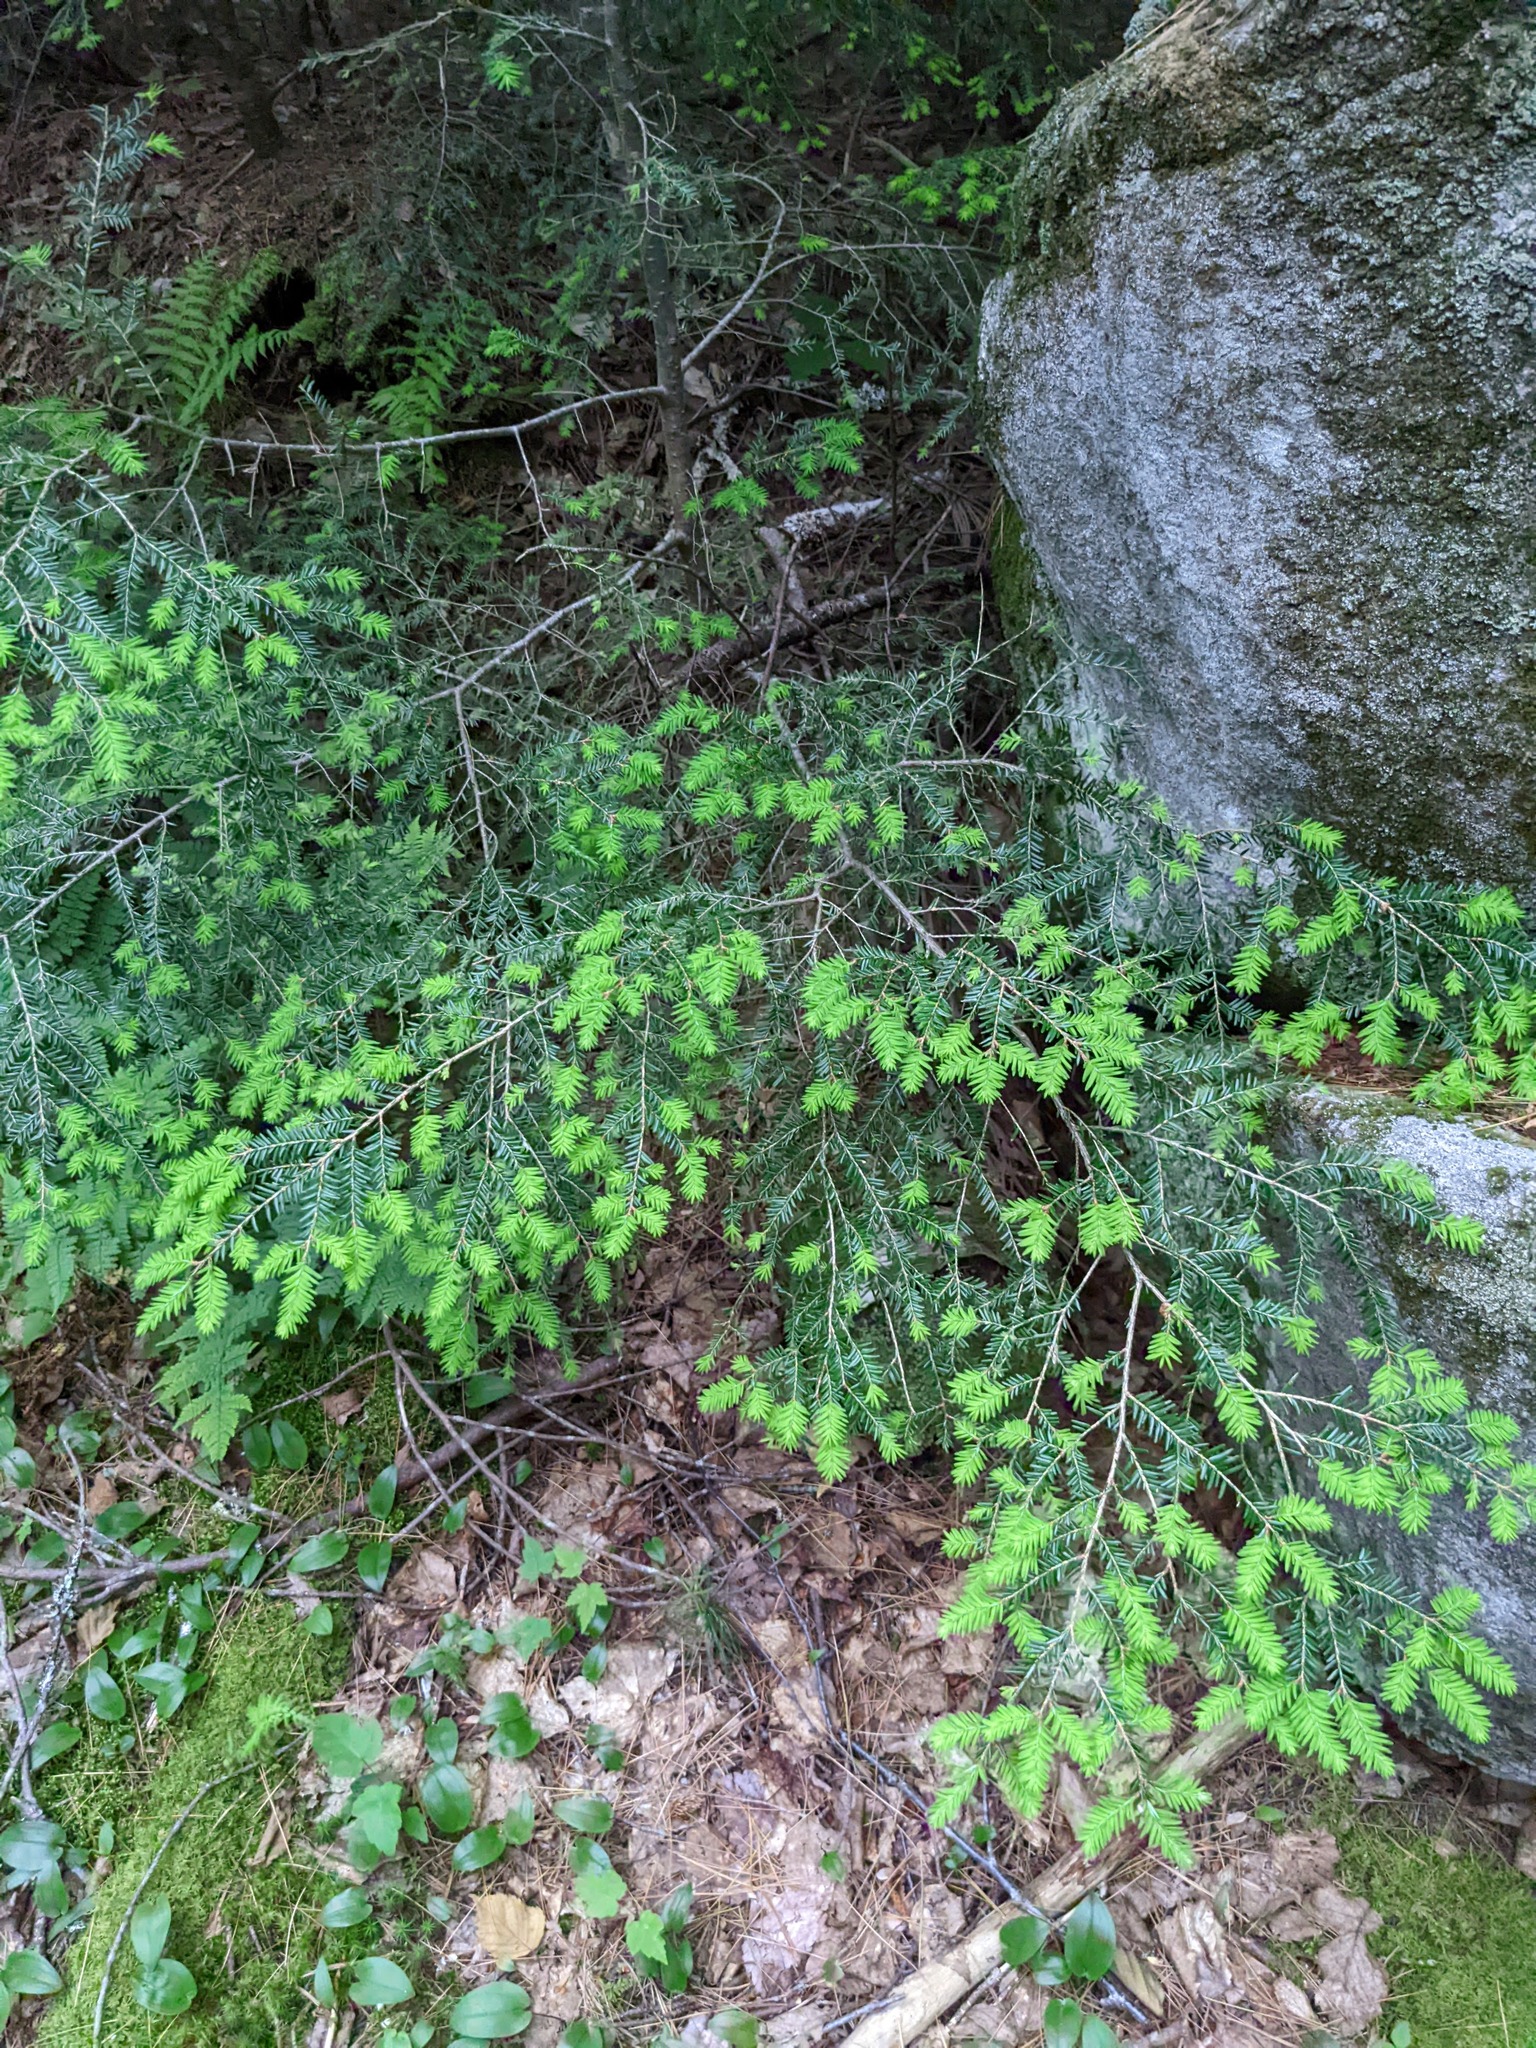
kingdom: Plantae
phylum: Tracheophyta
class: Pinopsida
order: Pinales
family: Pinaceae
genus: Tsuga
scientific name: Tsuga canadensis
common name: Eastern hemlock
